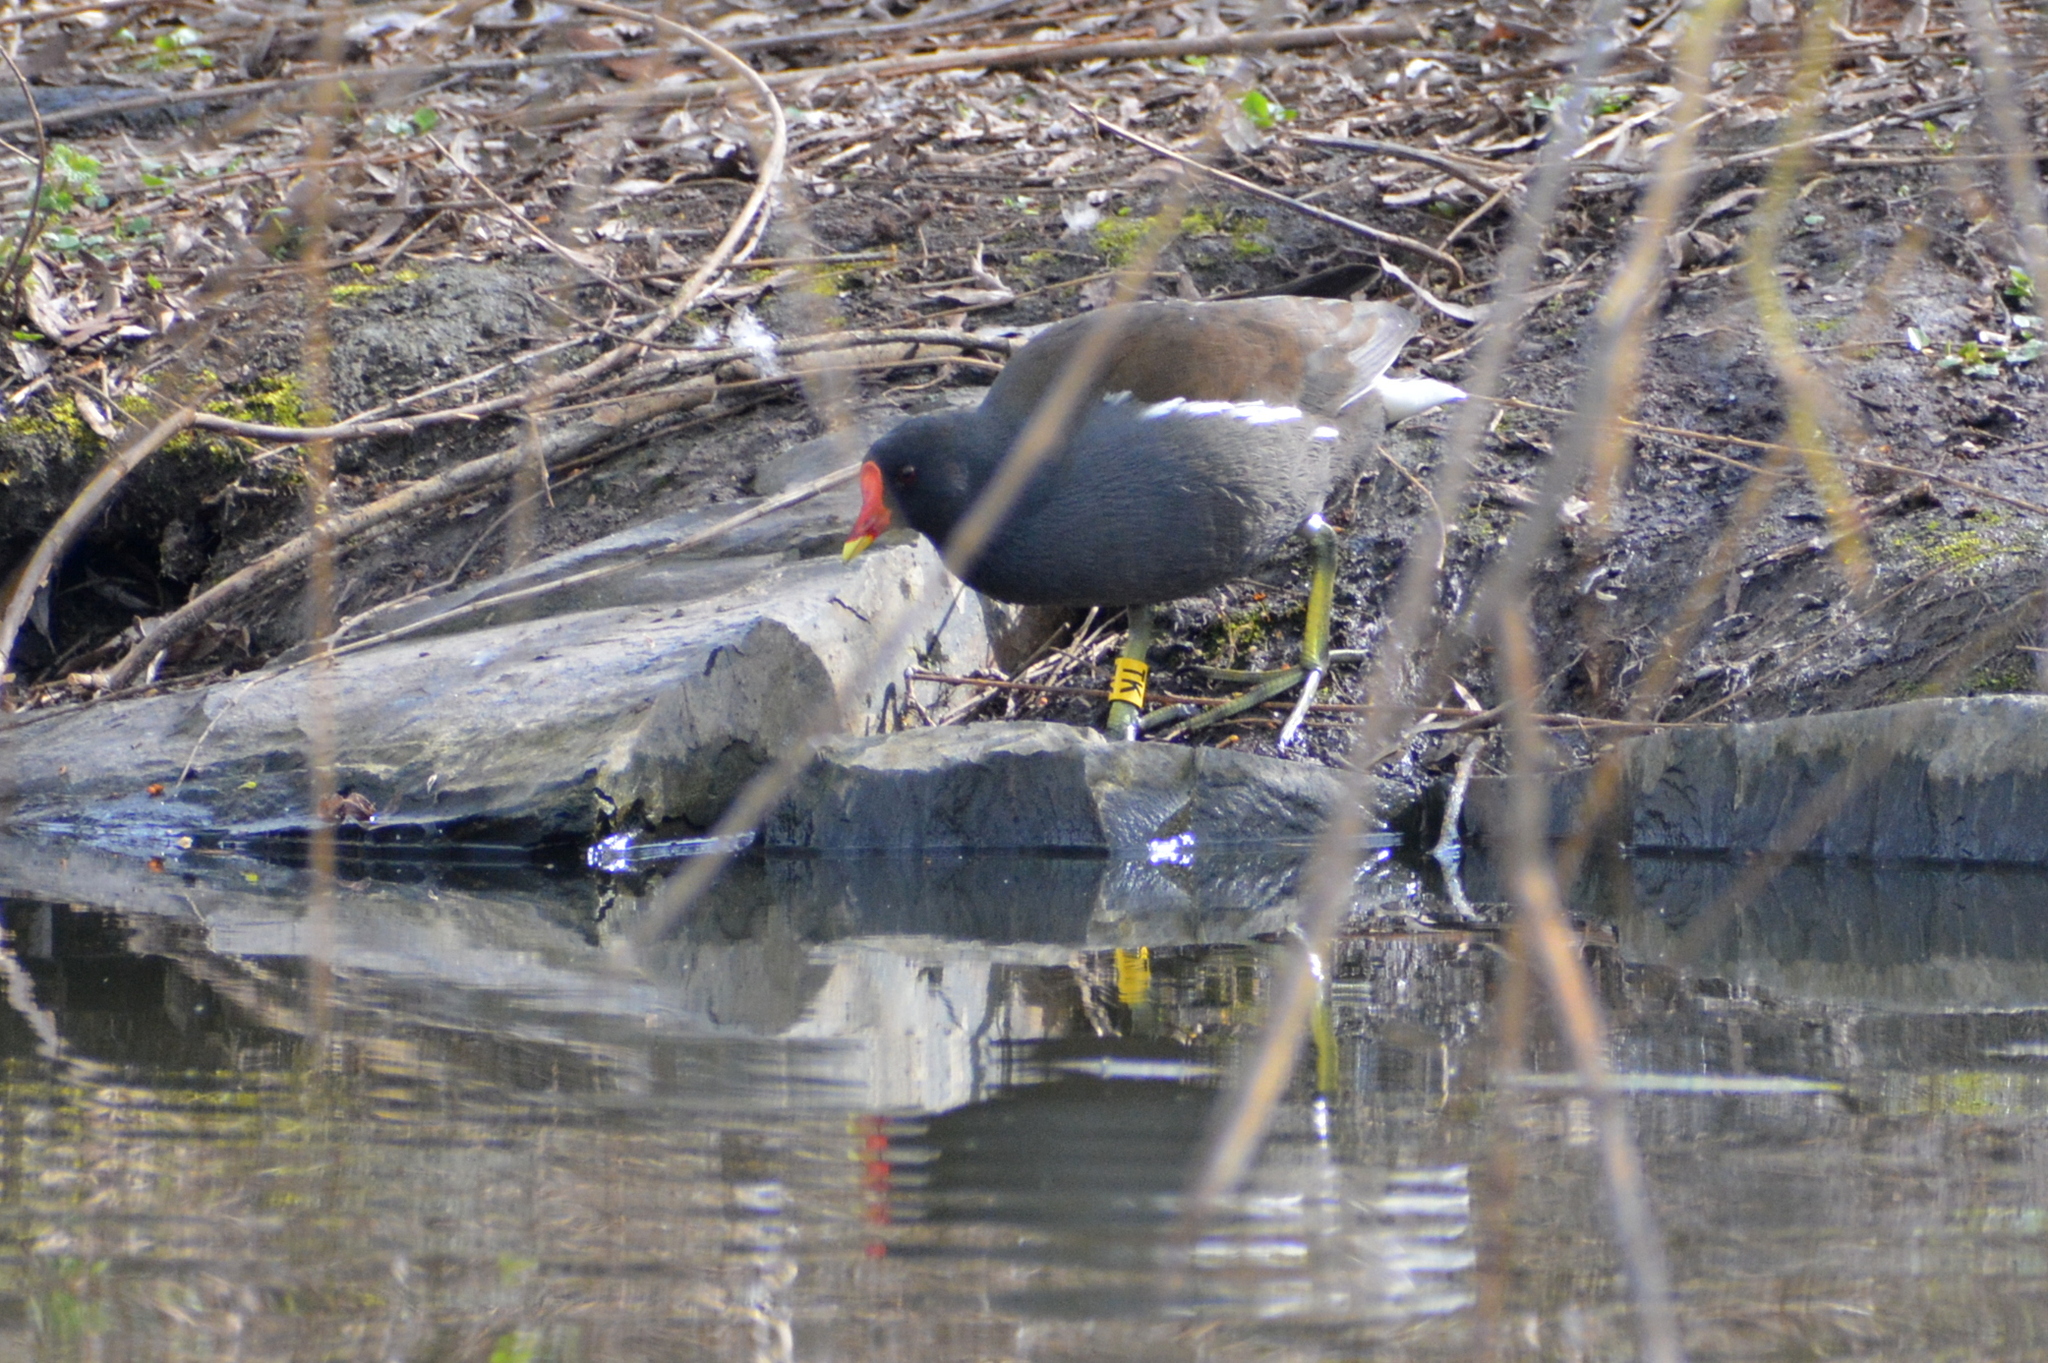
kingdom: Animalia
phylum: Chordata
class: Aves
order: Gruiformes
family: Rallidae
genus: Gallinula
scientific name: Gallinula chloropus
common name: Common moorhen
